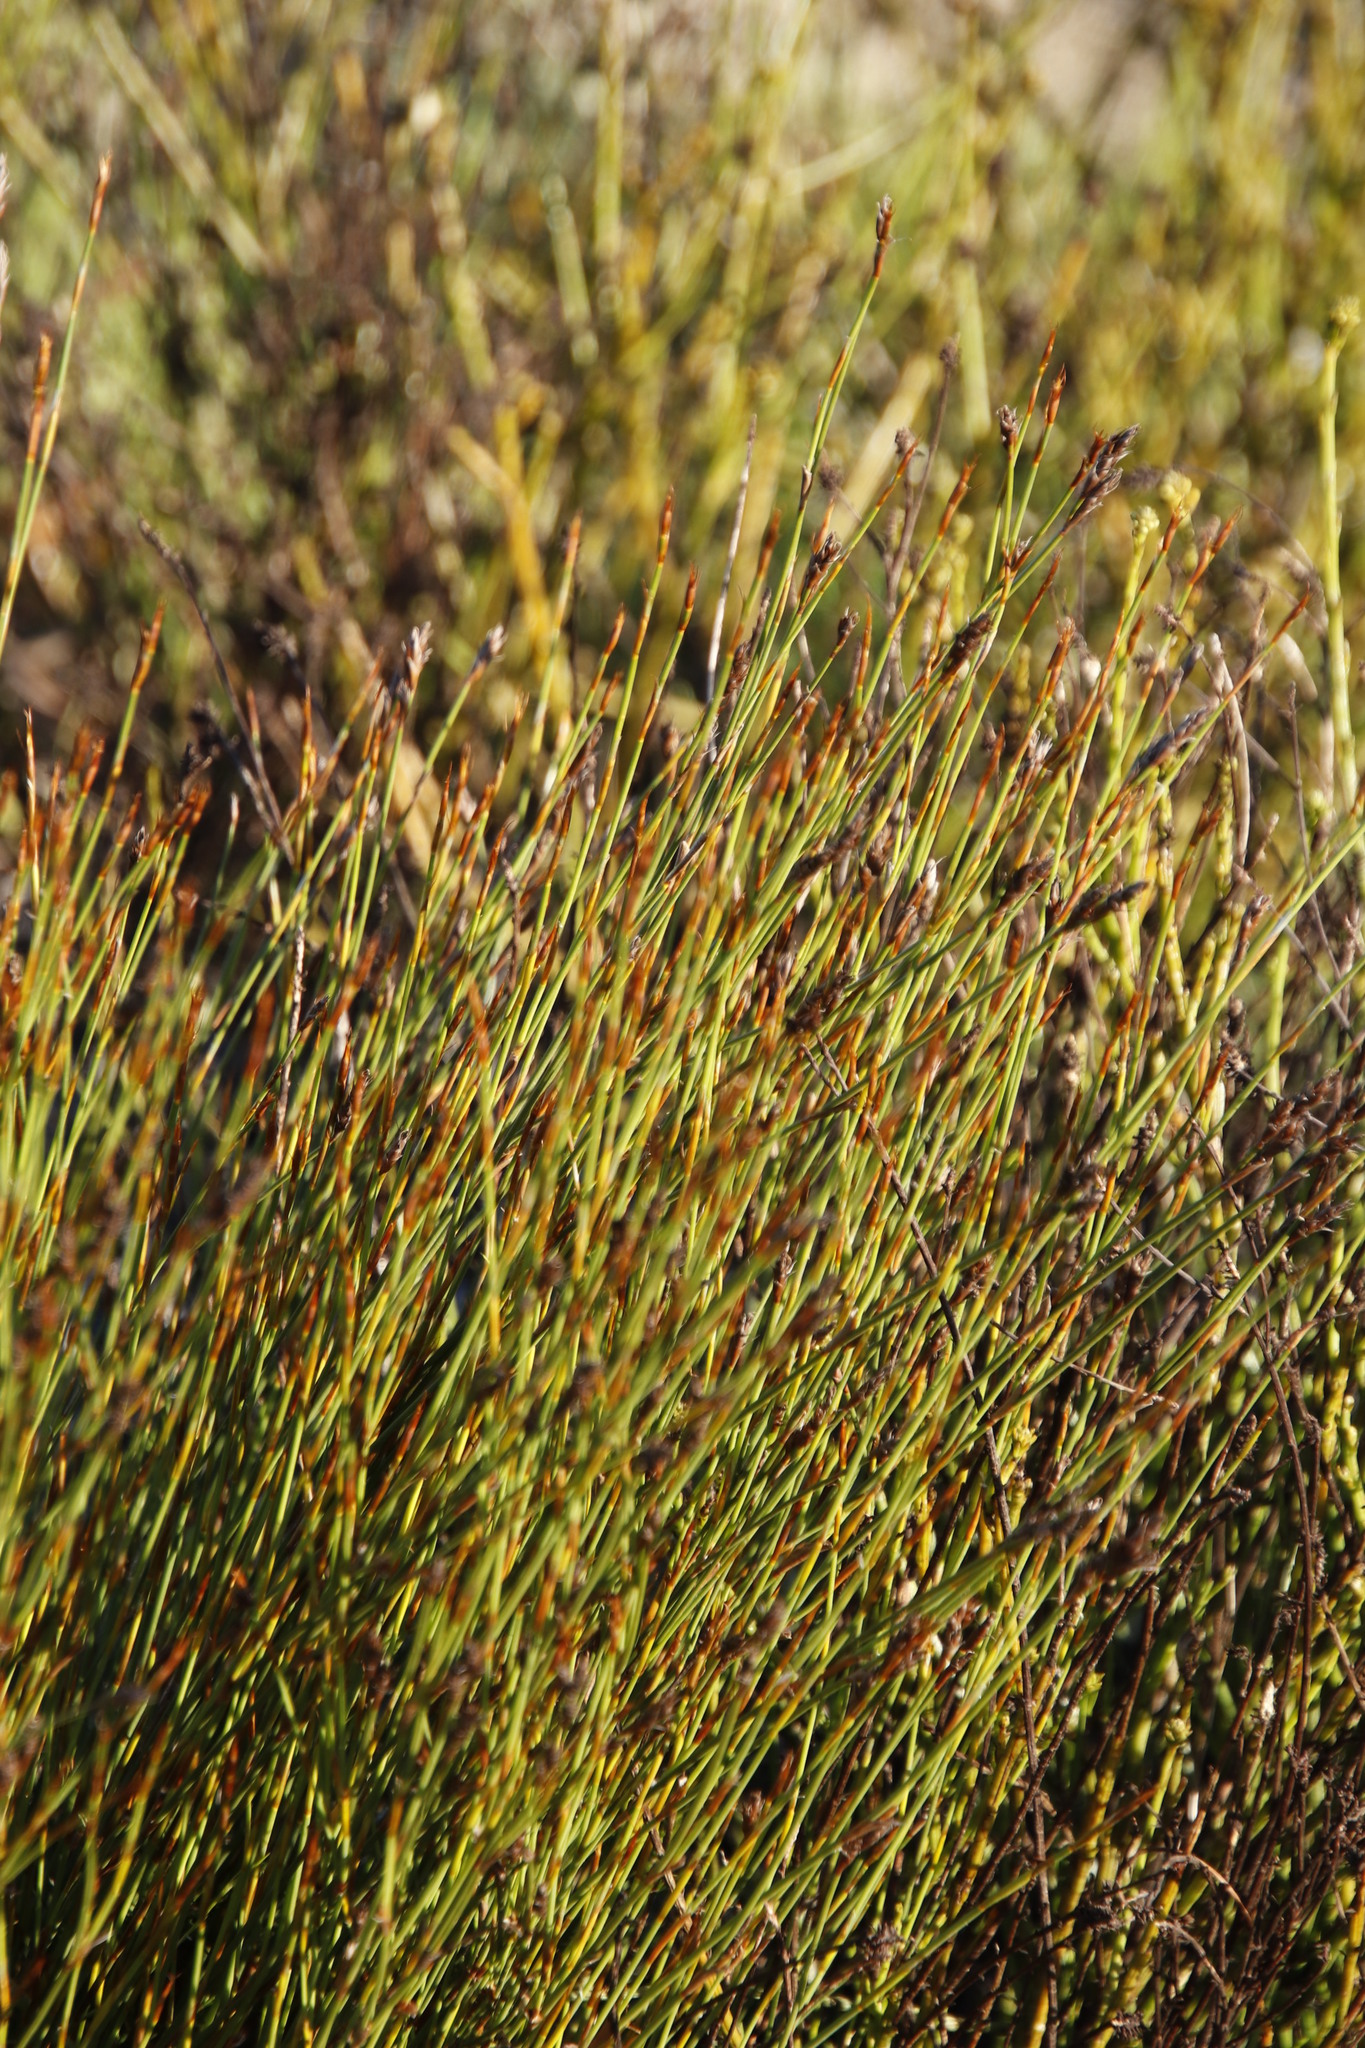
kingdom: Plantae
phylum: Tracheophyta
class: Liliopsida
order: Poales
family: Restionaceae
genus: Restio
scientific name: Restio capensis
